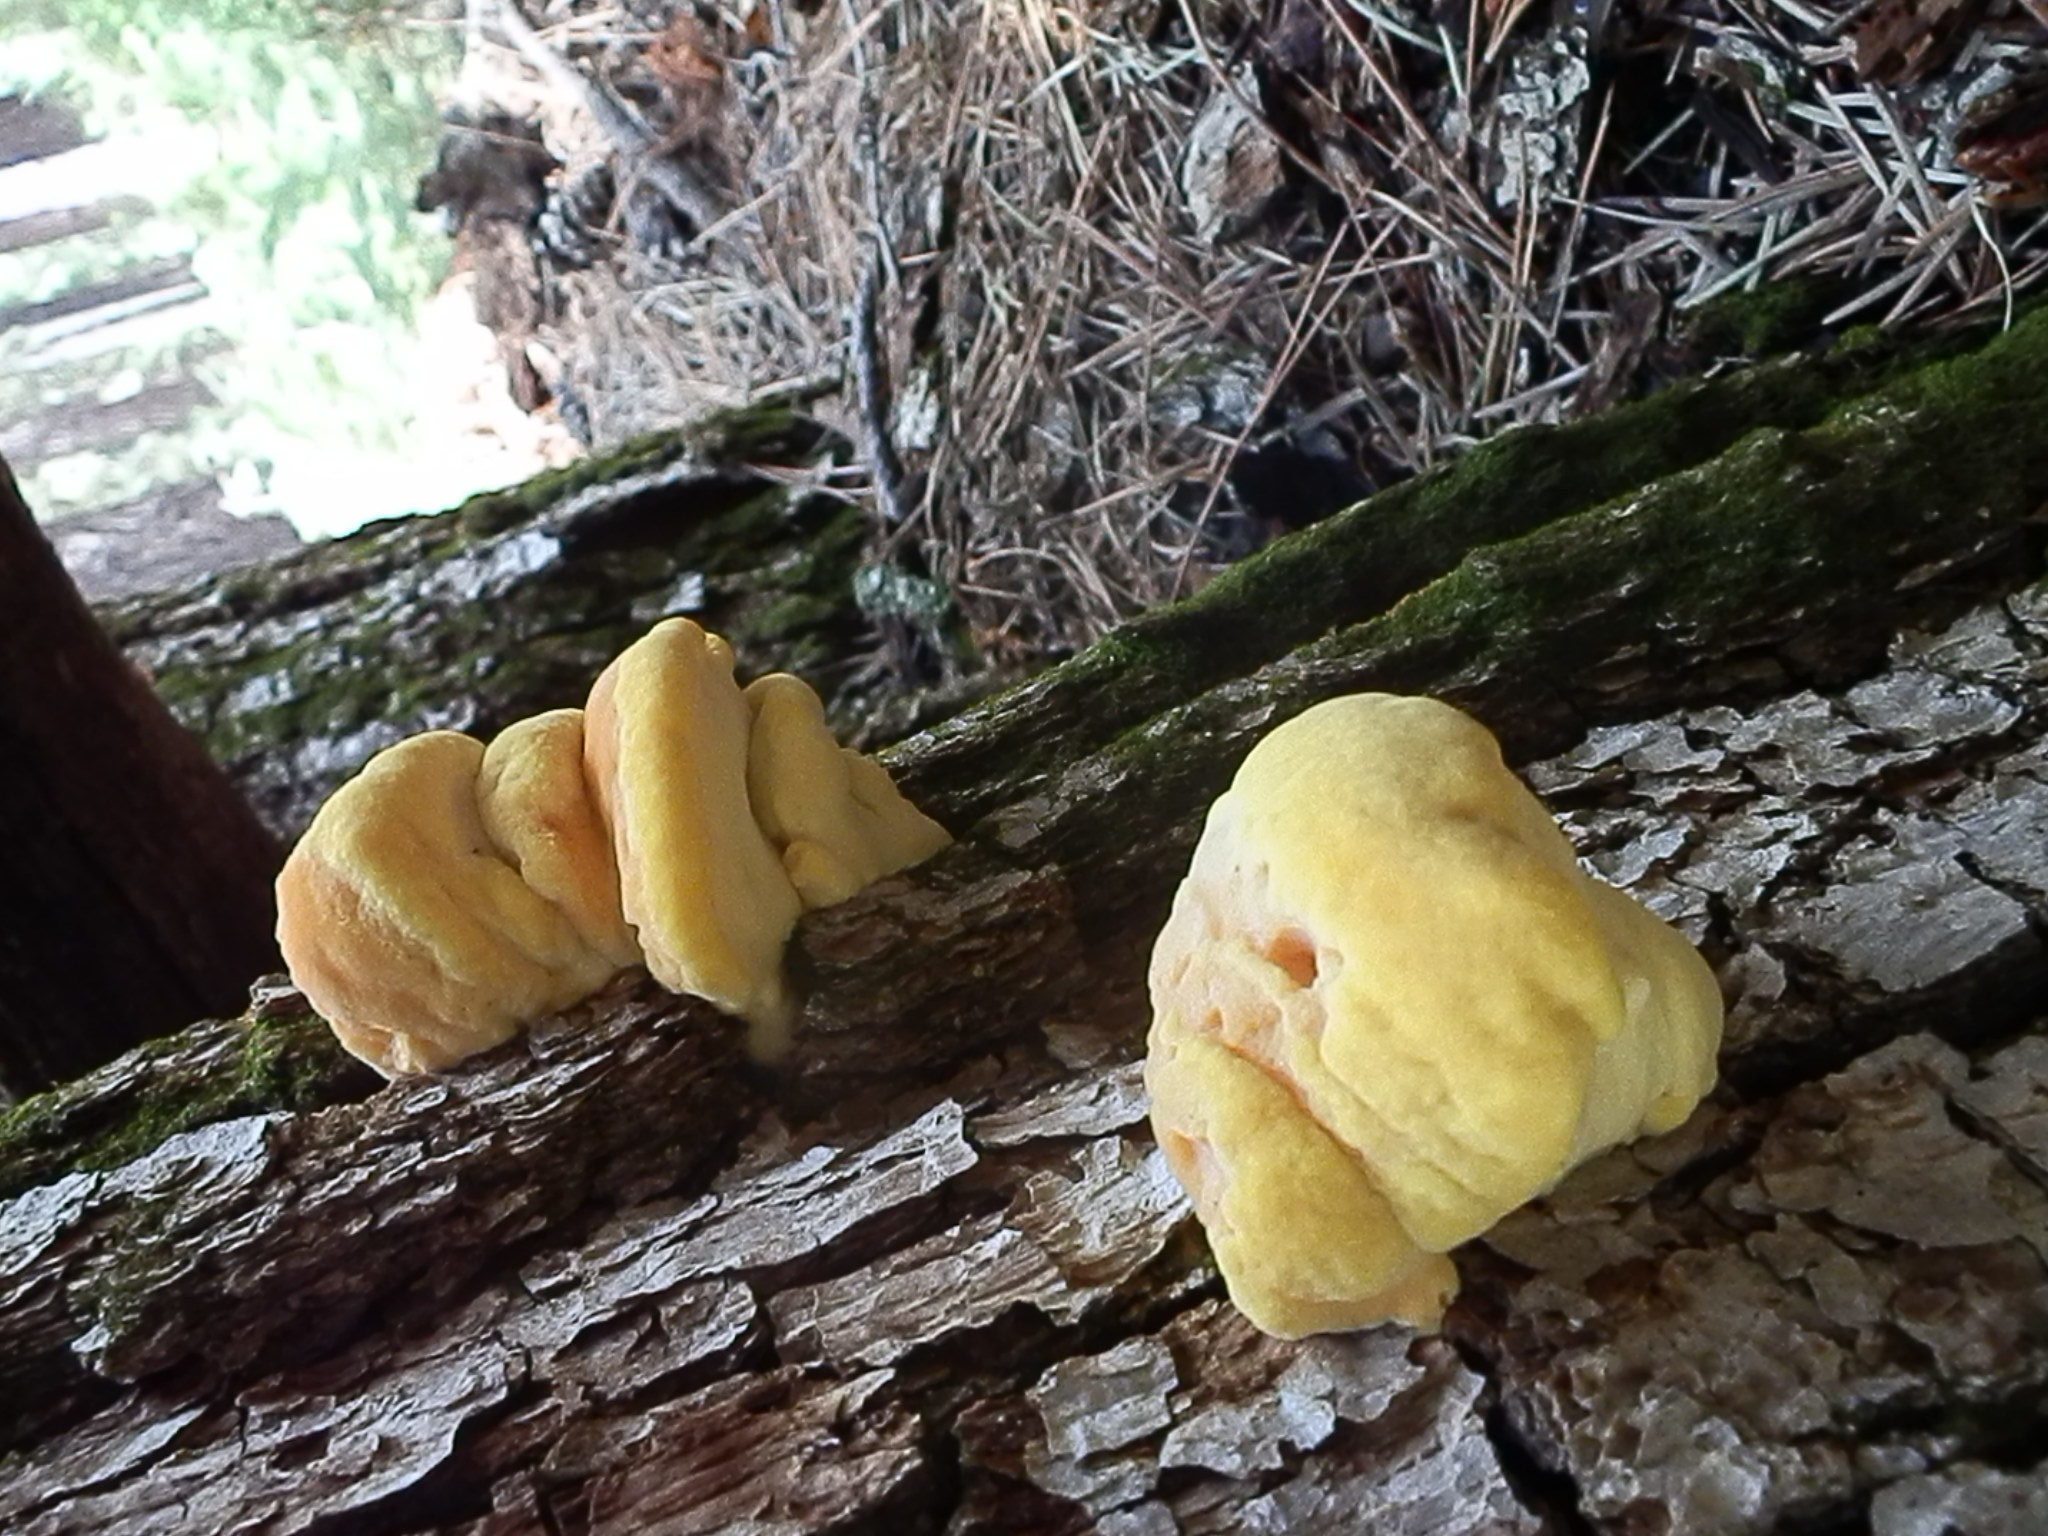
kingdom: Fungi
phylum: Basidiomycota
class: Agaricomycetes
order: Polyporales
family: Laetiporaceae
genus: Laetiporus
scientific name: Laetiporus gilbertsonii
